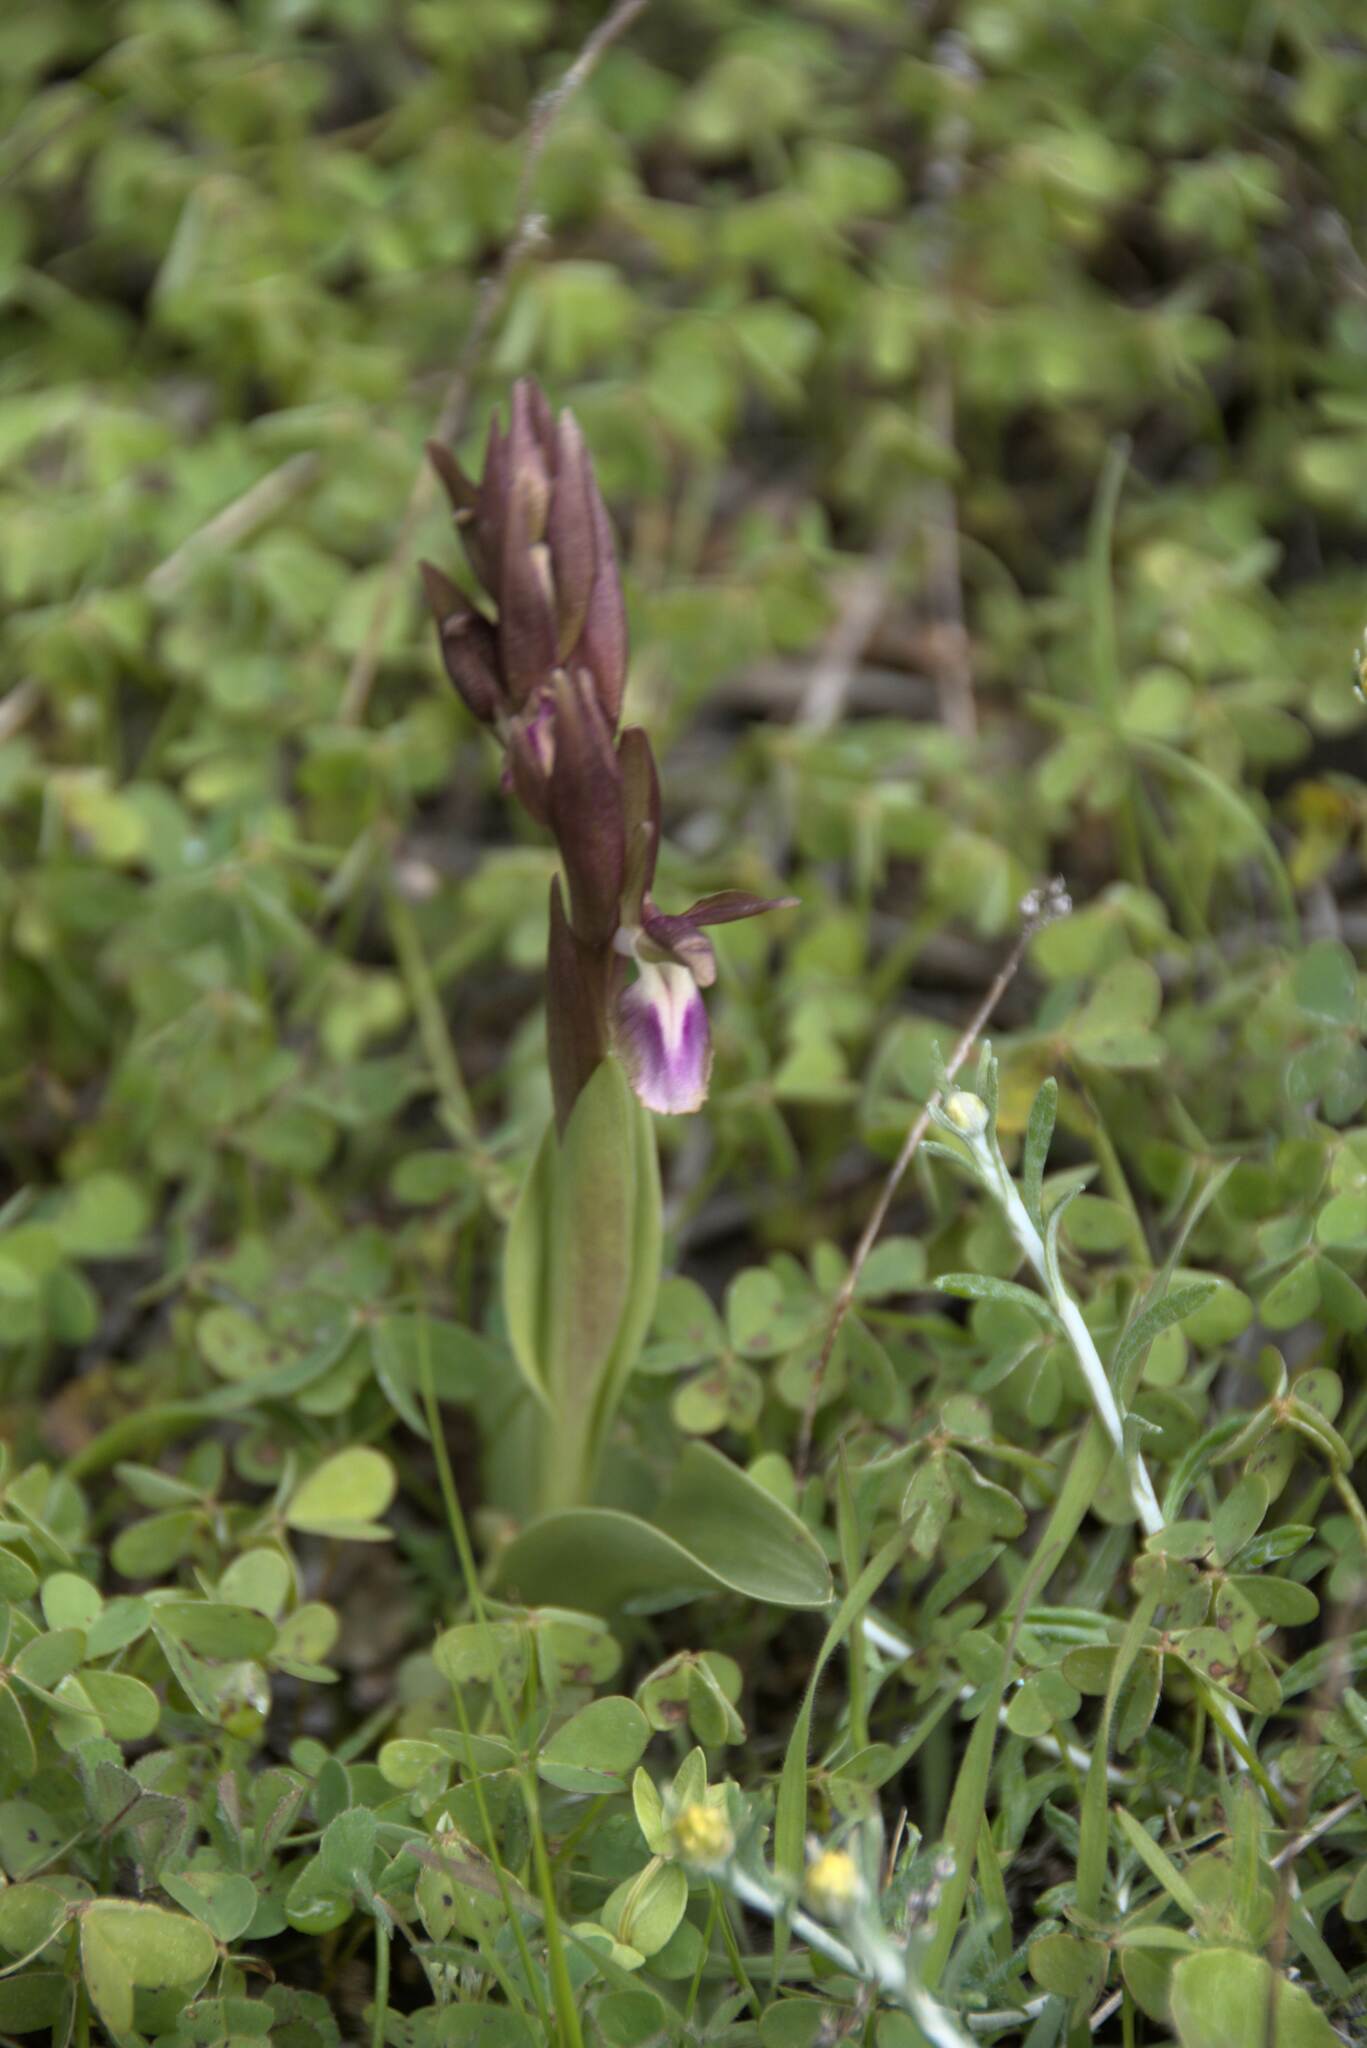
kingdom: Plantae
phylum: Tracheophyta
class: Liliopsida
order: Asparagales
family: Orchidaceae
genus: Anacamptis
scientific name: Anacamptis collina
